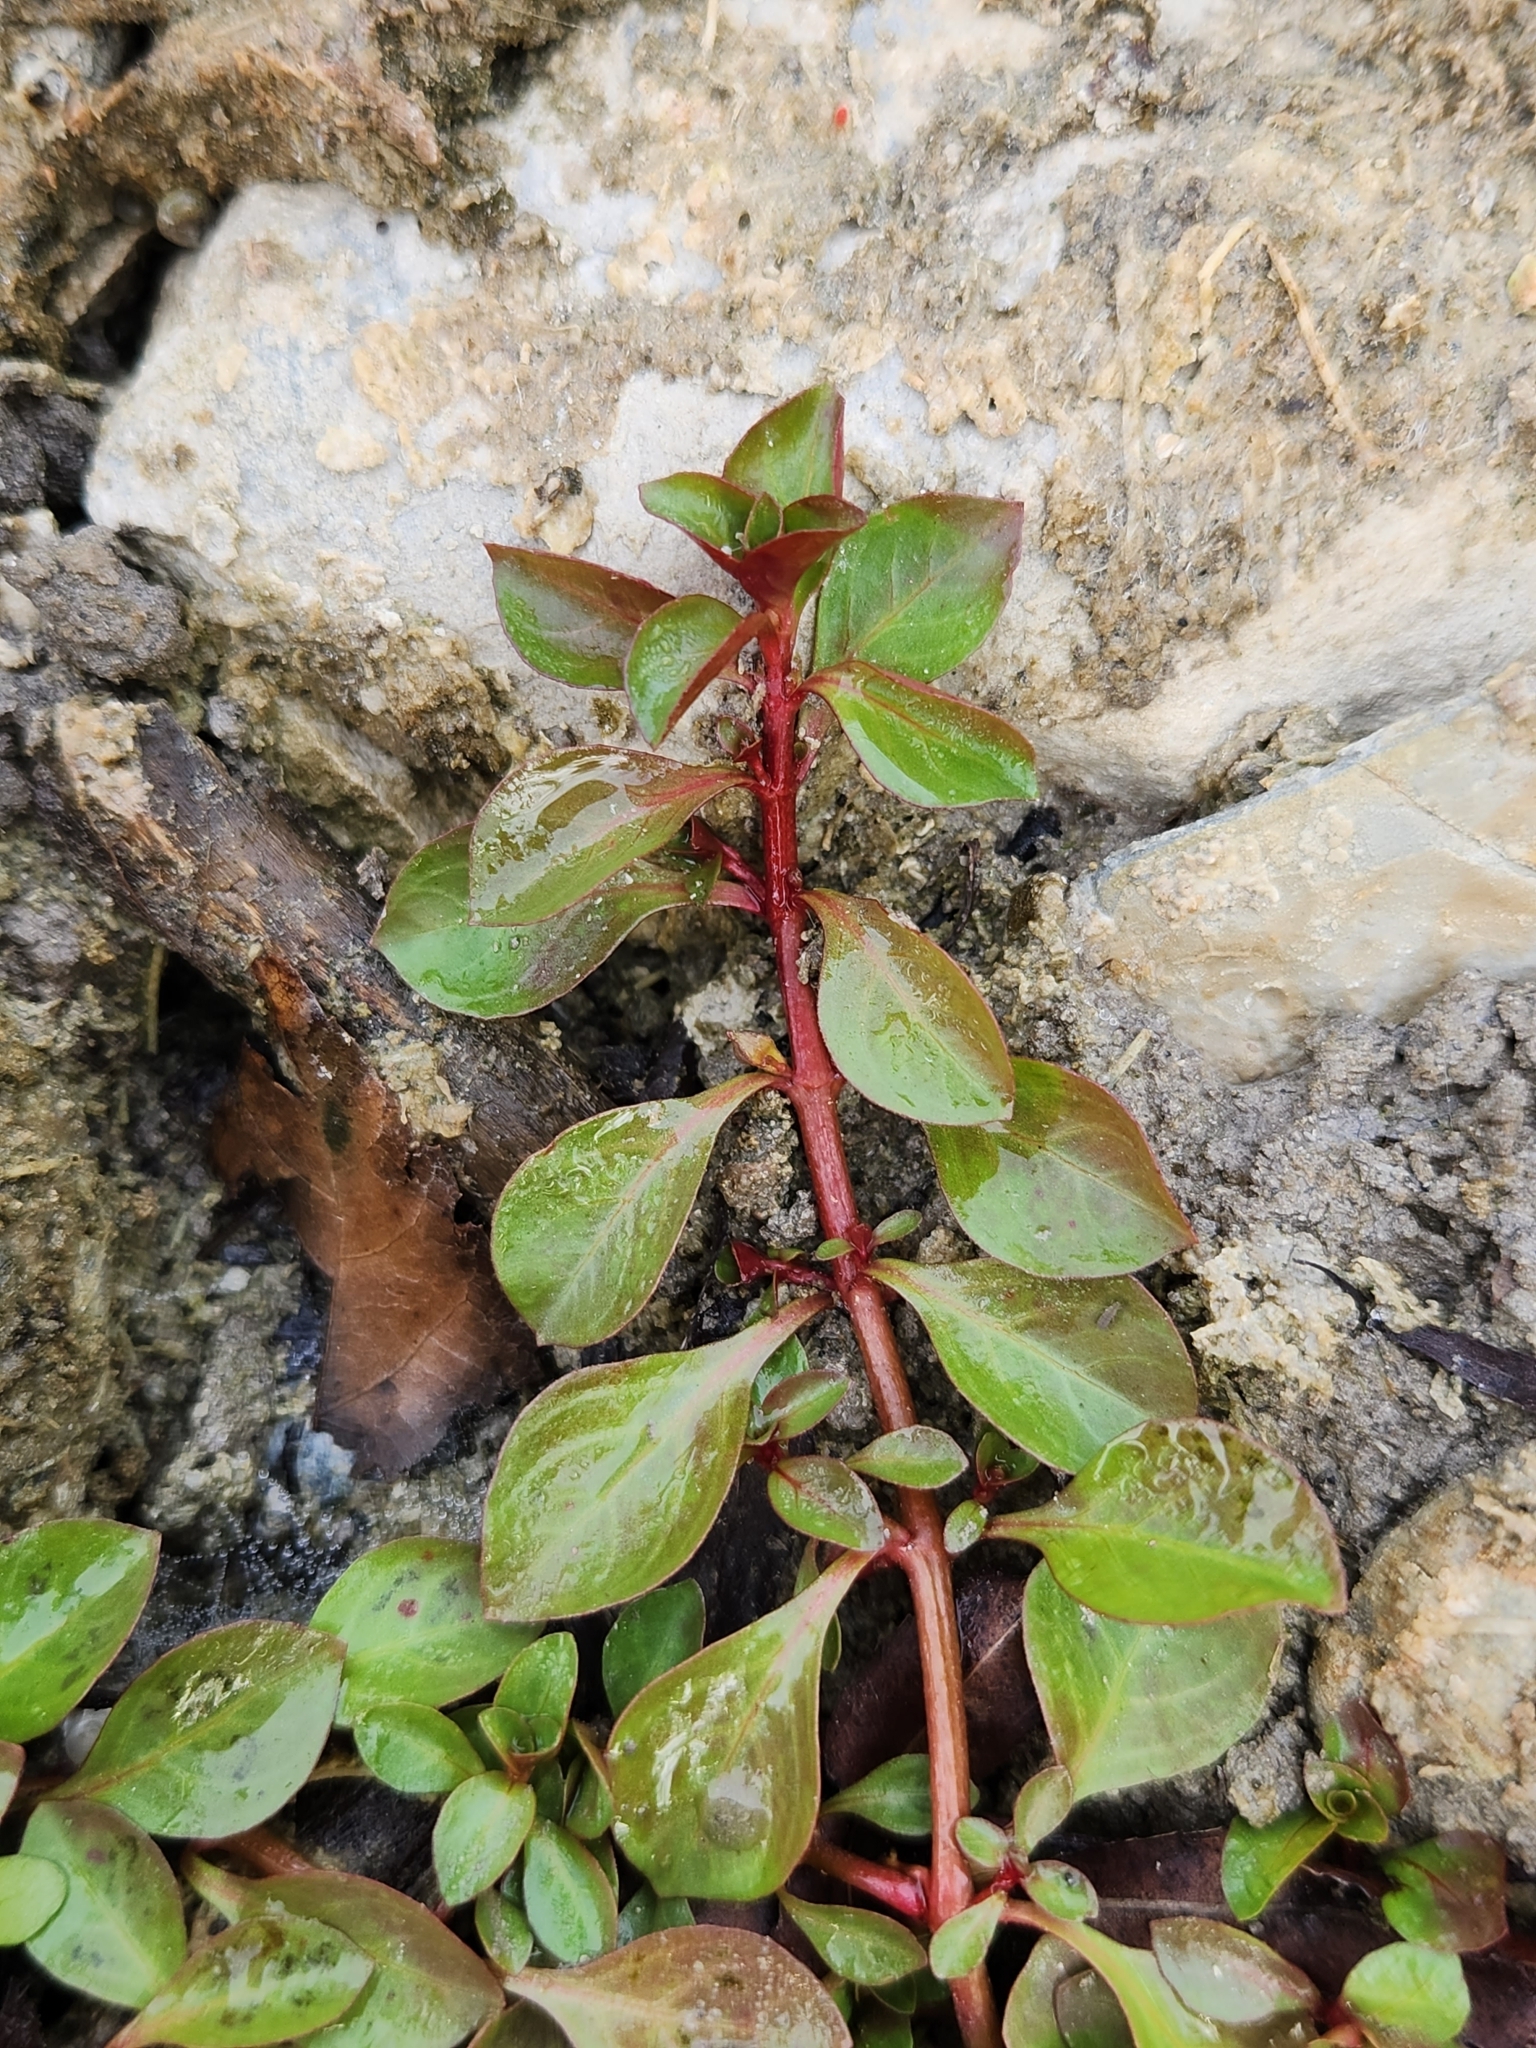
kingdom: Plantae
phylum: Tracheophyta
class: Magnoliopsida
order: Myrtales
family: Onagraceae
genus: Ludwigia
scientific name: Ludwigia repens
